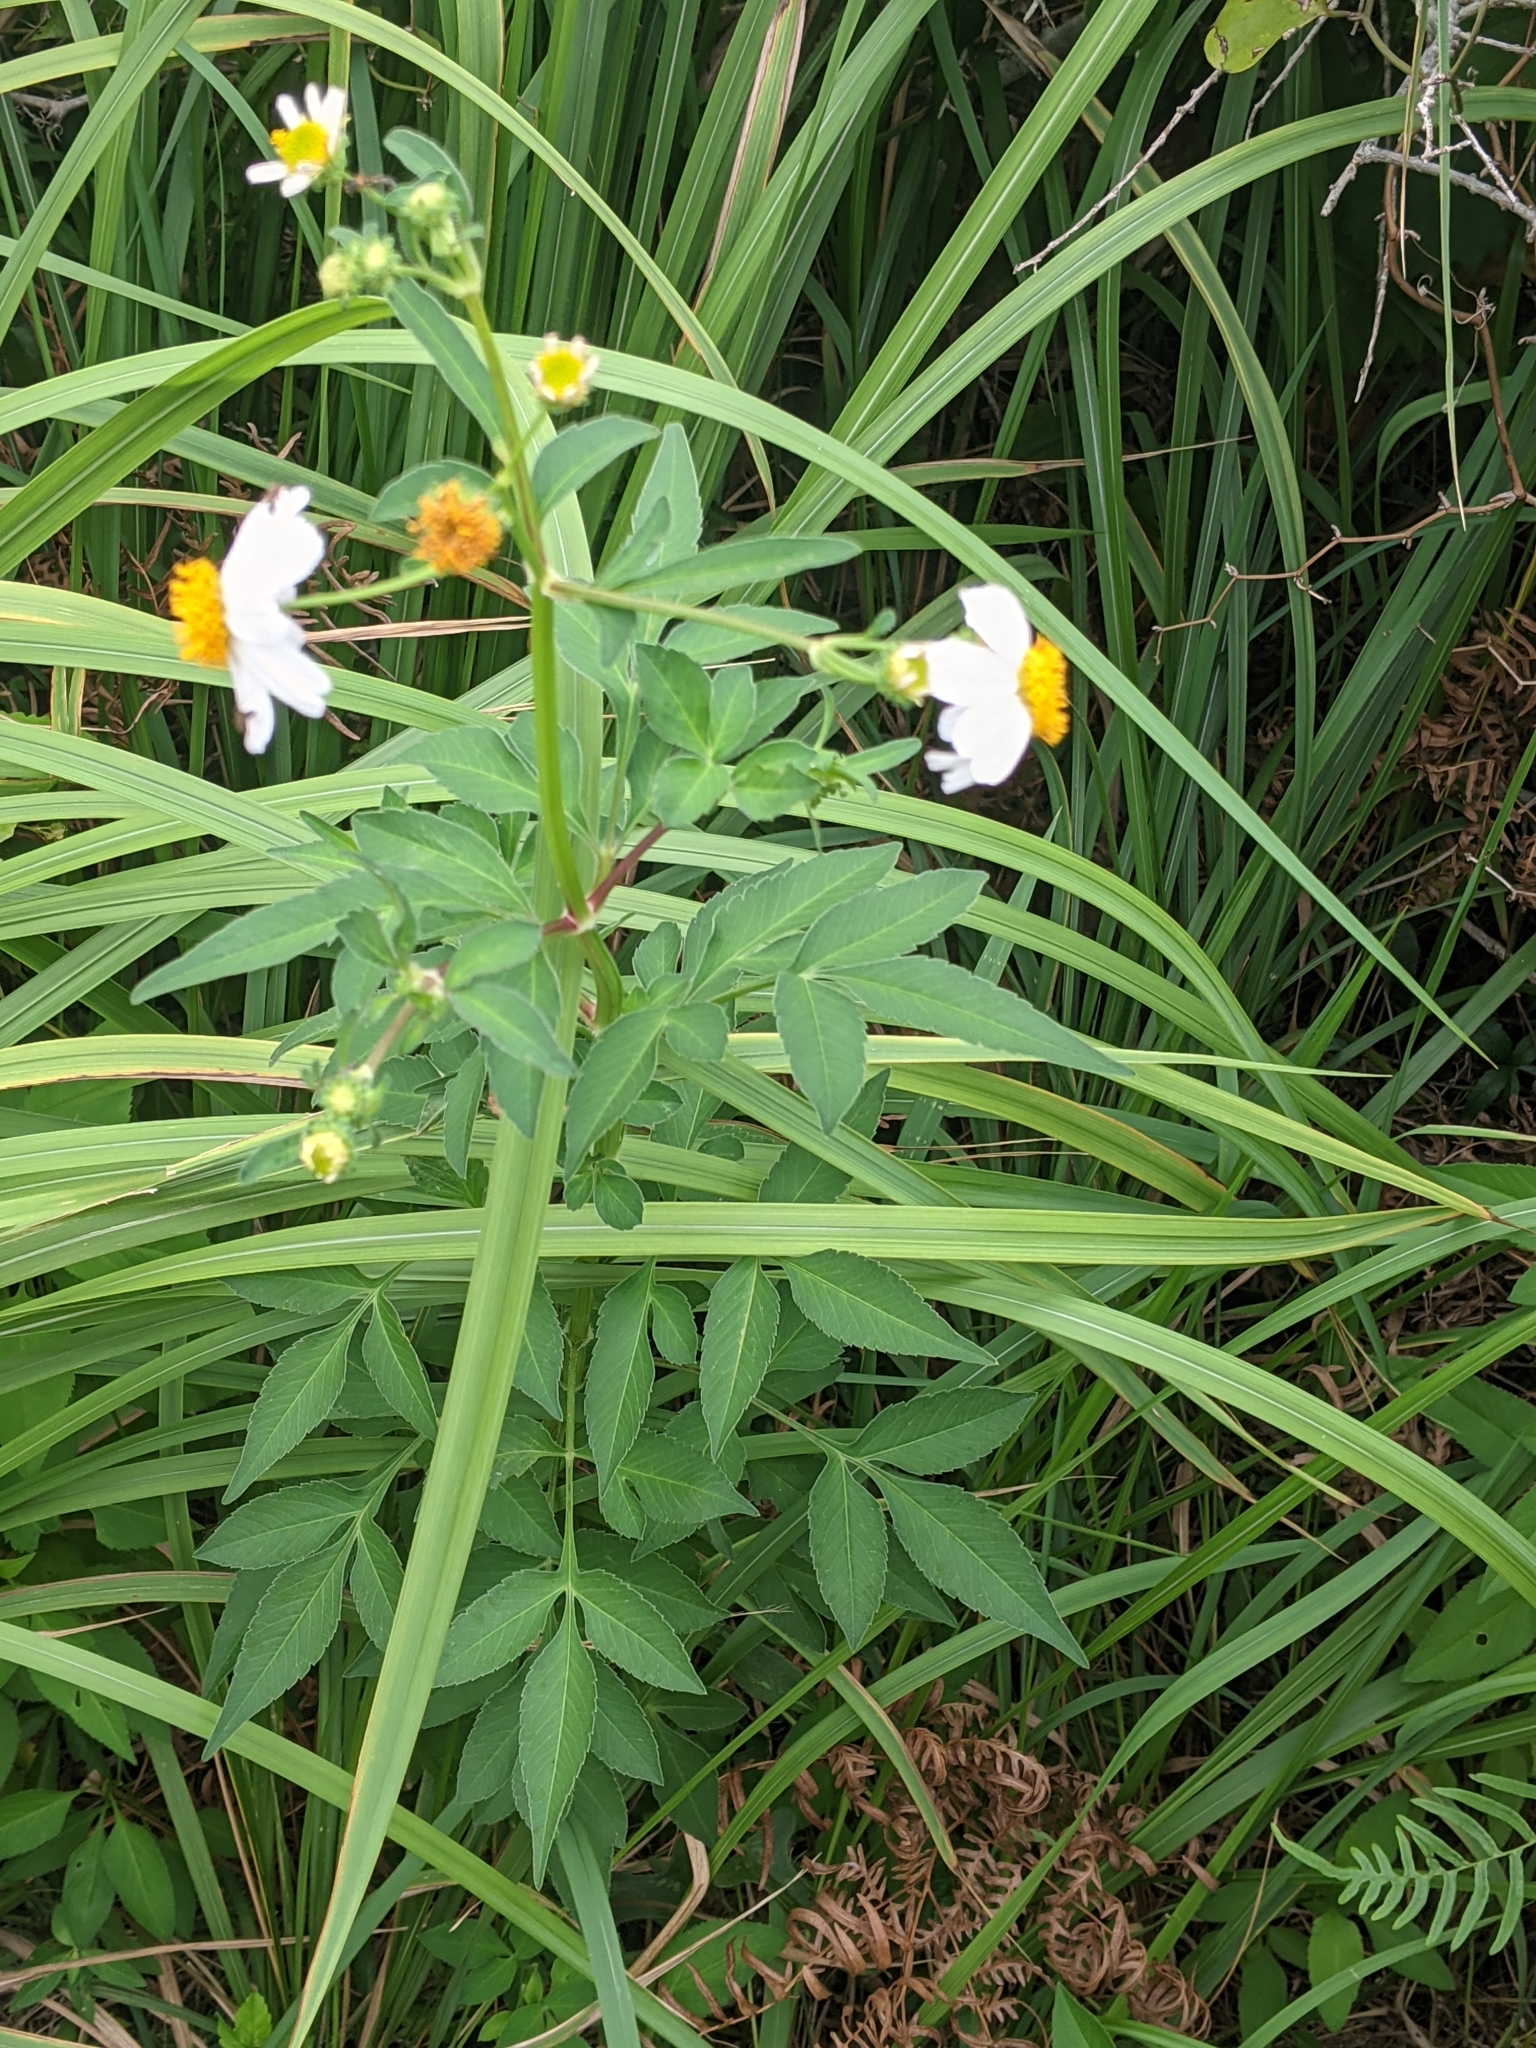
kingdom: Plantae
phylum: Tracheophyta
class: Magnoliopsida
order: Asterales
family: Asteraceae
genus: Bidens
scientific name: Bidens alba
